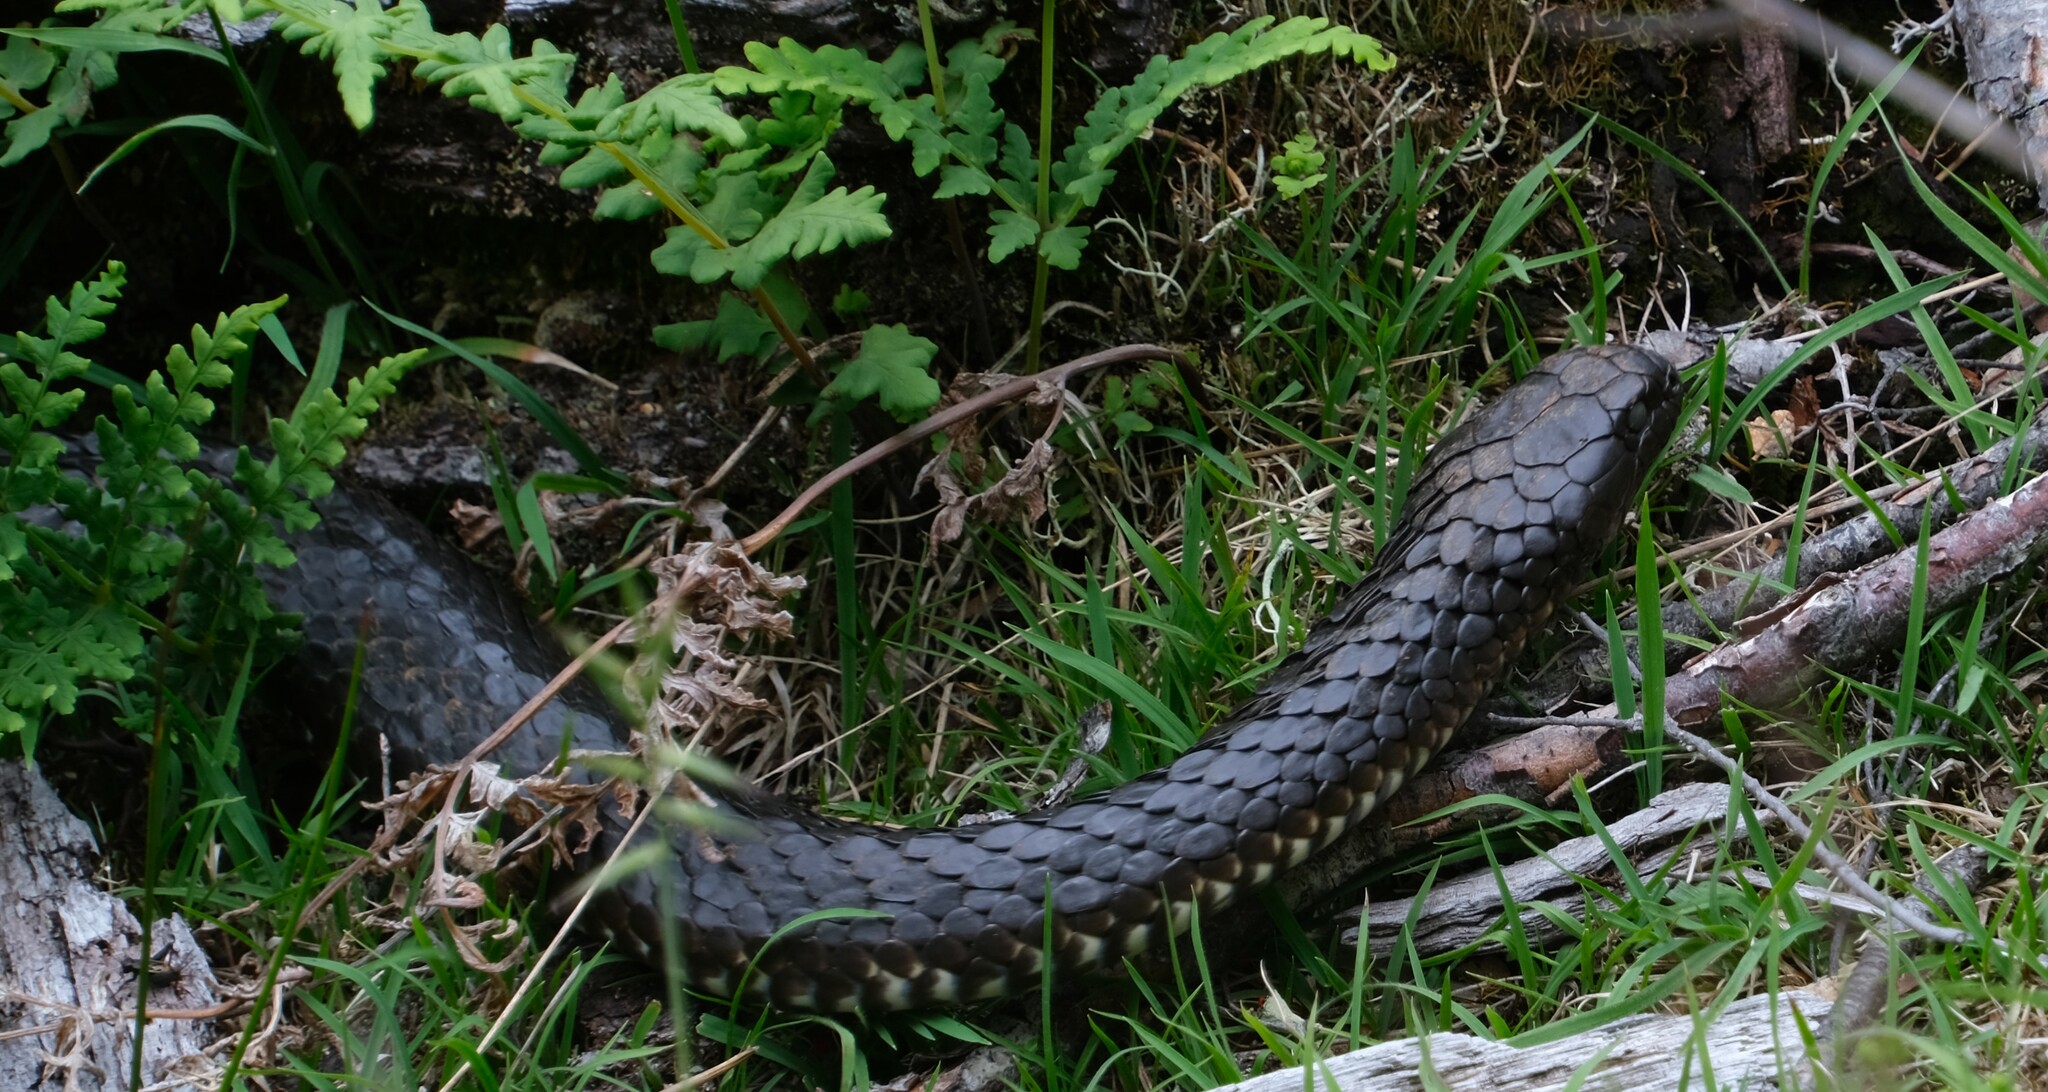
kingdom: Animalia
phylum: Chordata
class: Squamata
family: Elapidae
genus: Notechis
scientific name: Notechis scutatus
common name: Mainland tiger snake
